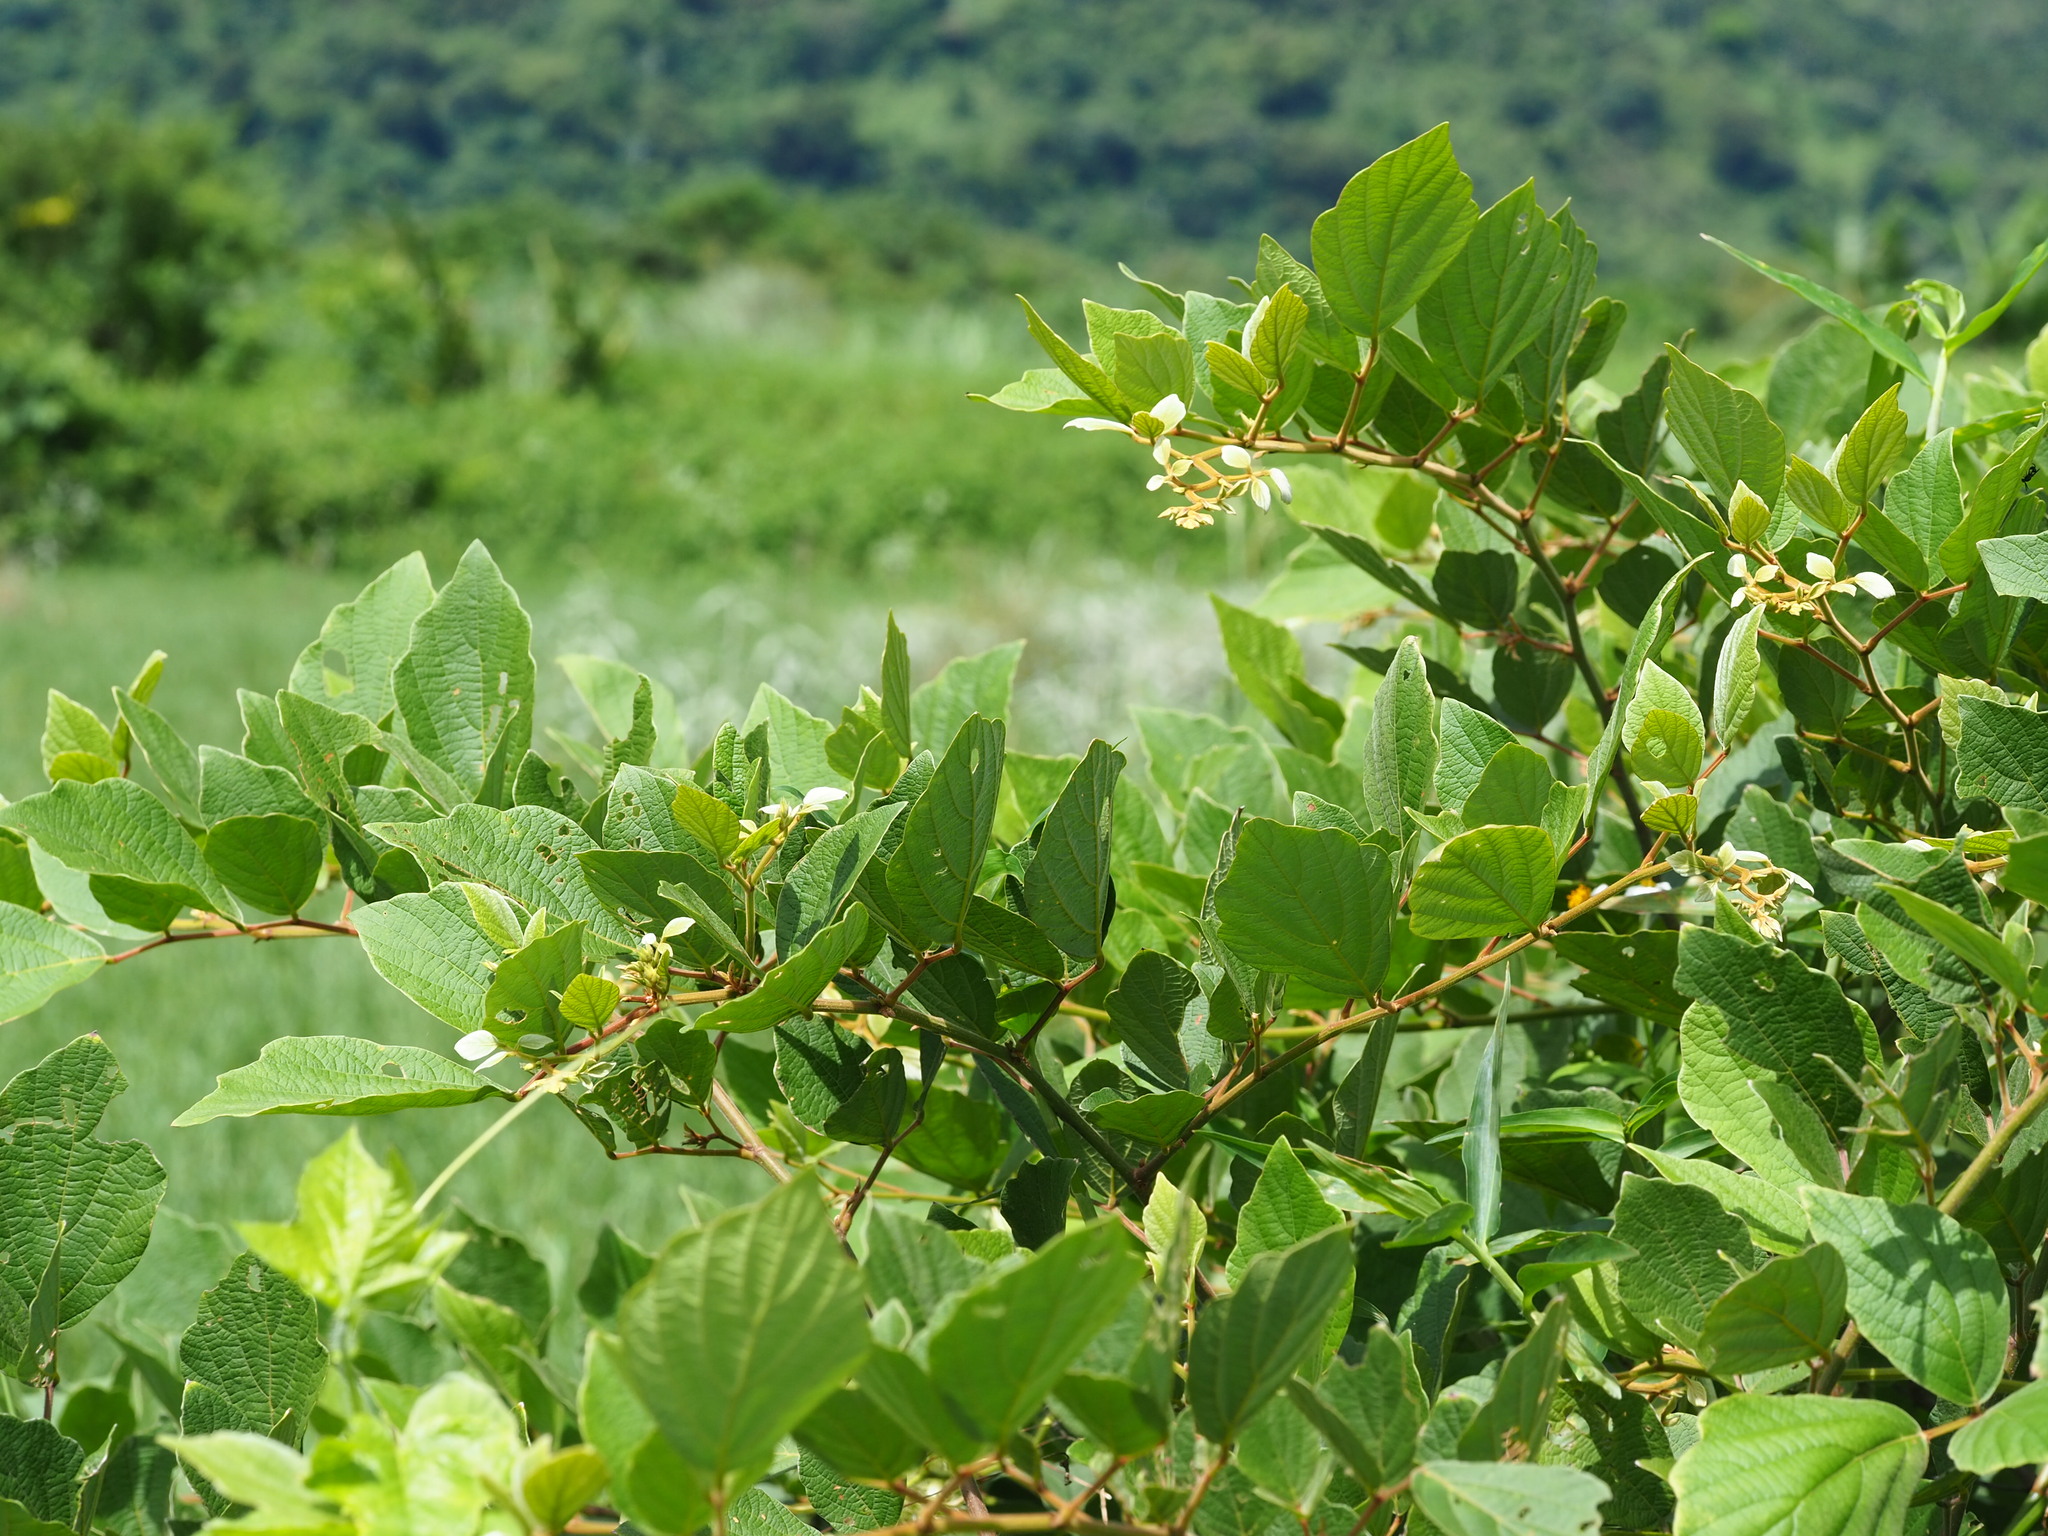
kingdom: Plantae
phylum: Tracheophyta
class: Magnoliopsida
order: Fabales
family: Fabaceae
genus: Puhuaea
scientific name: Puhuaea sequax
